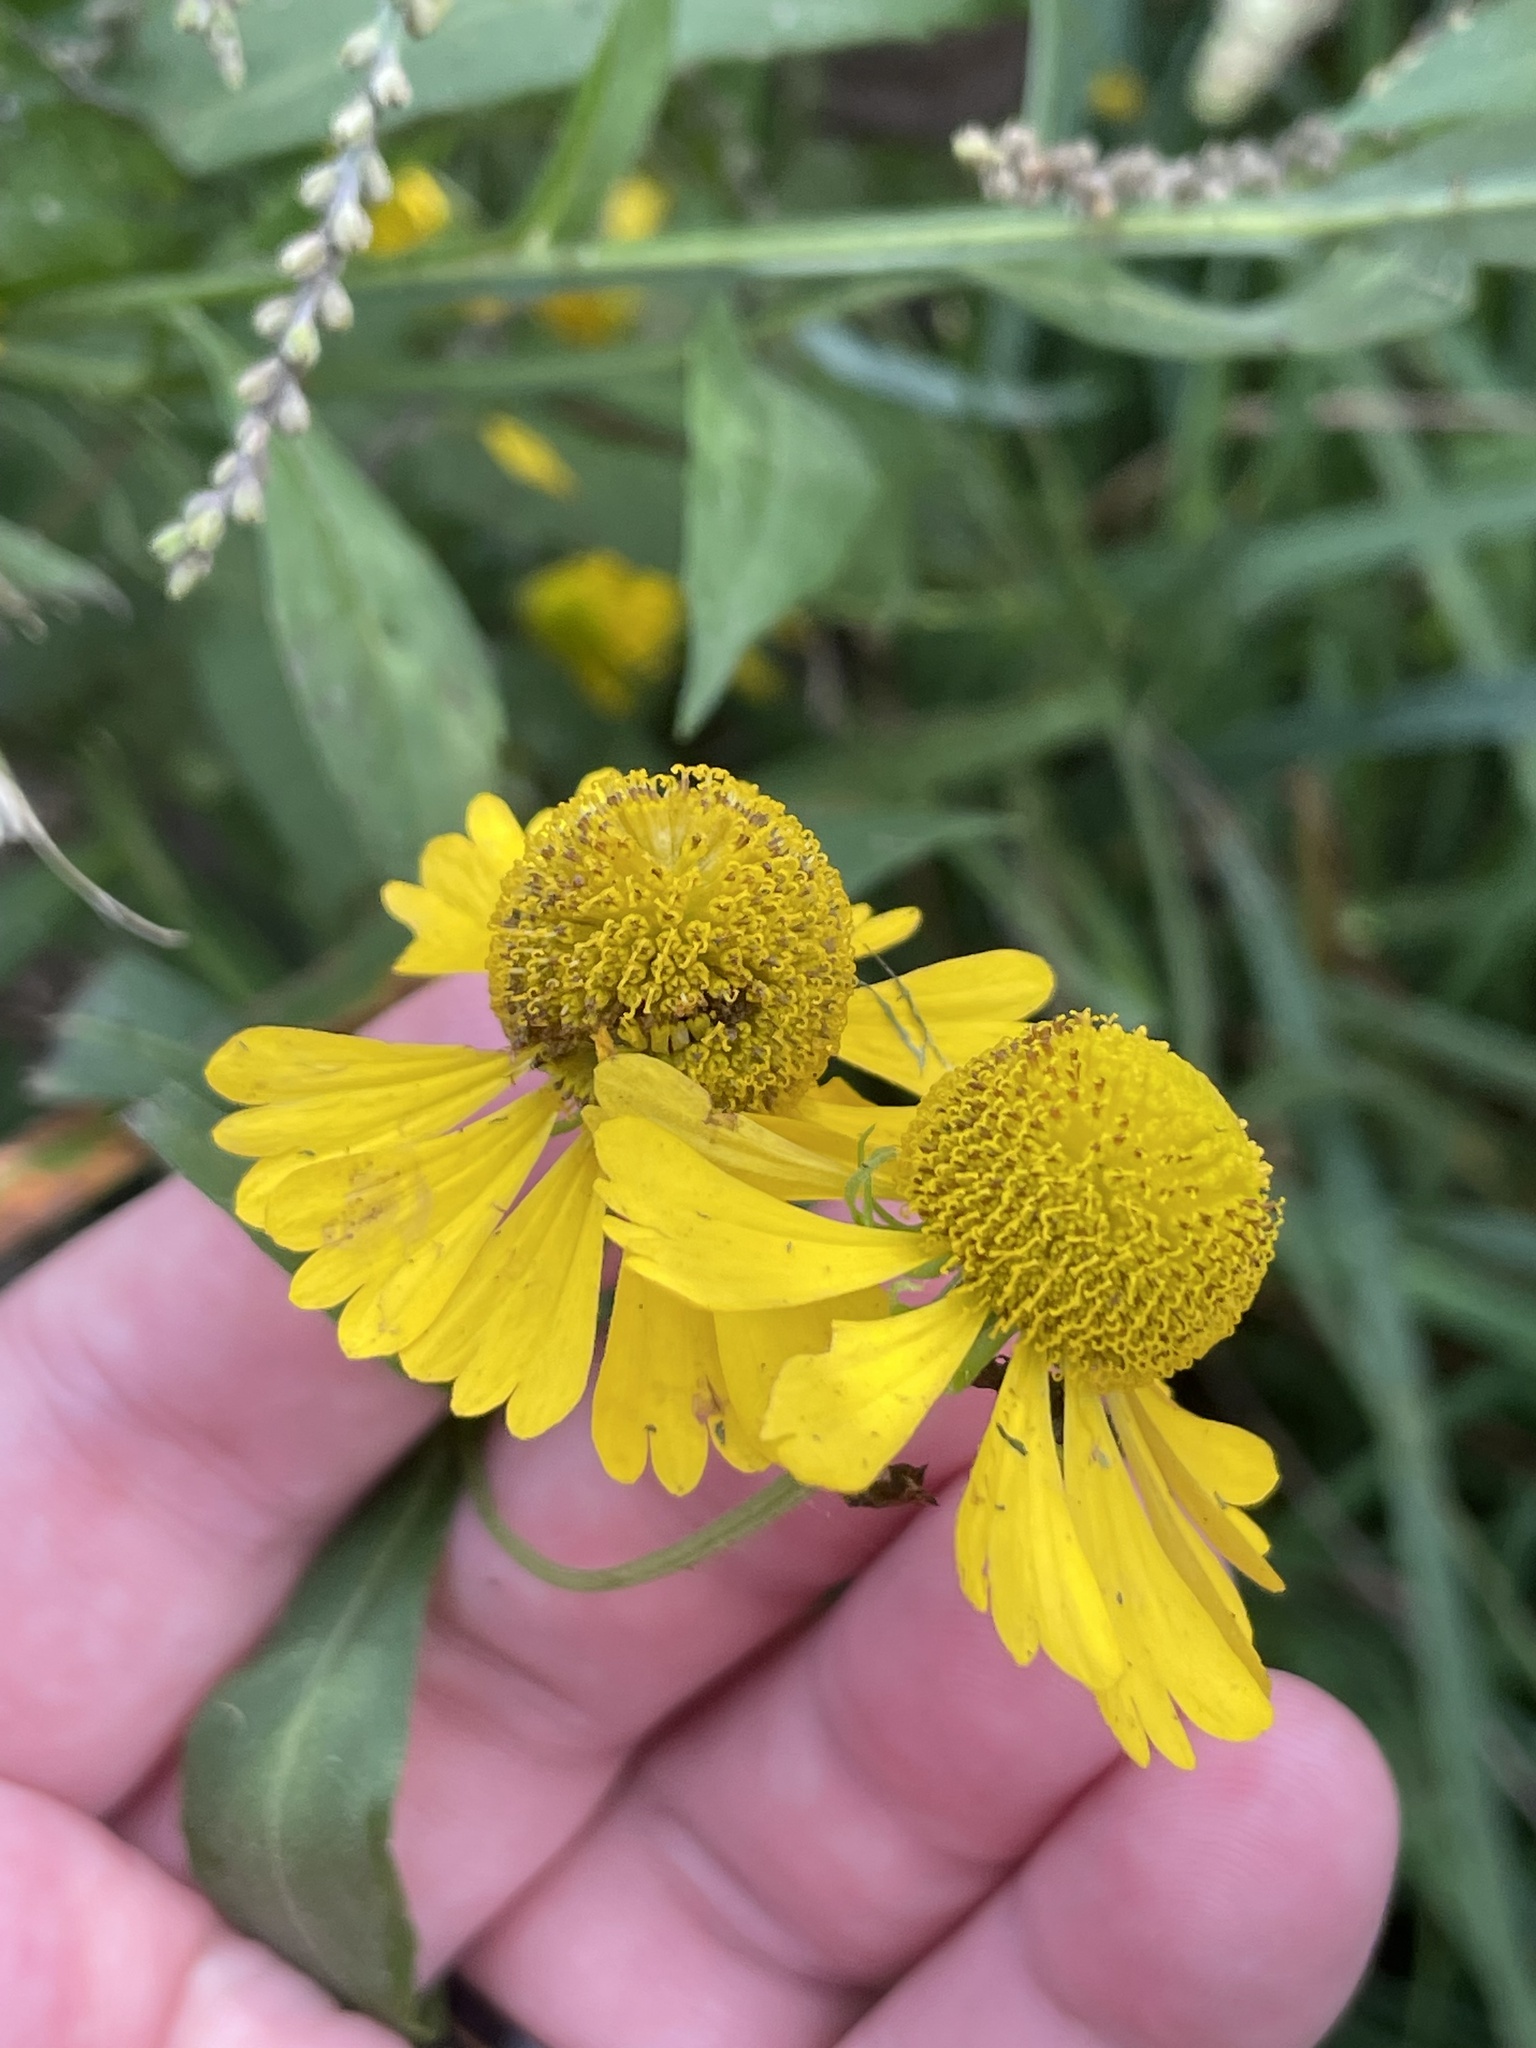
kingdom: Plantae
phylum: Tracheophyta
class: Magnoliopsida
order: Asterales
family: Asteraceae
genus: Helenium
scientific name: Helenium autumnale
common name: Sneezeweed
